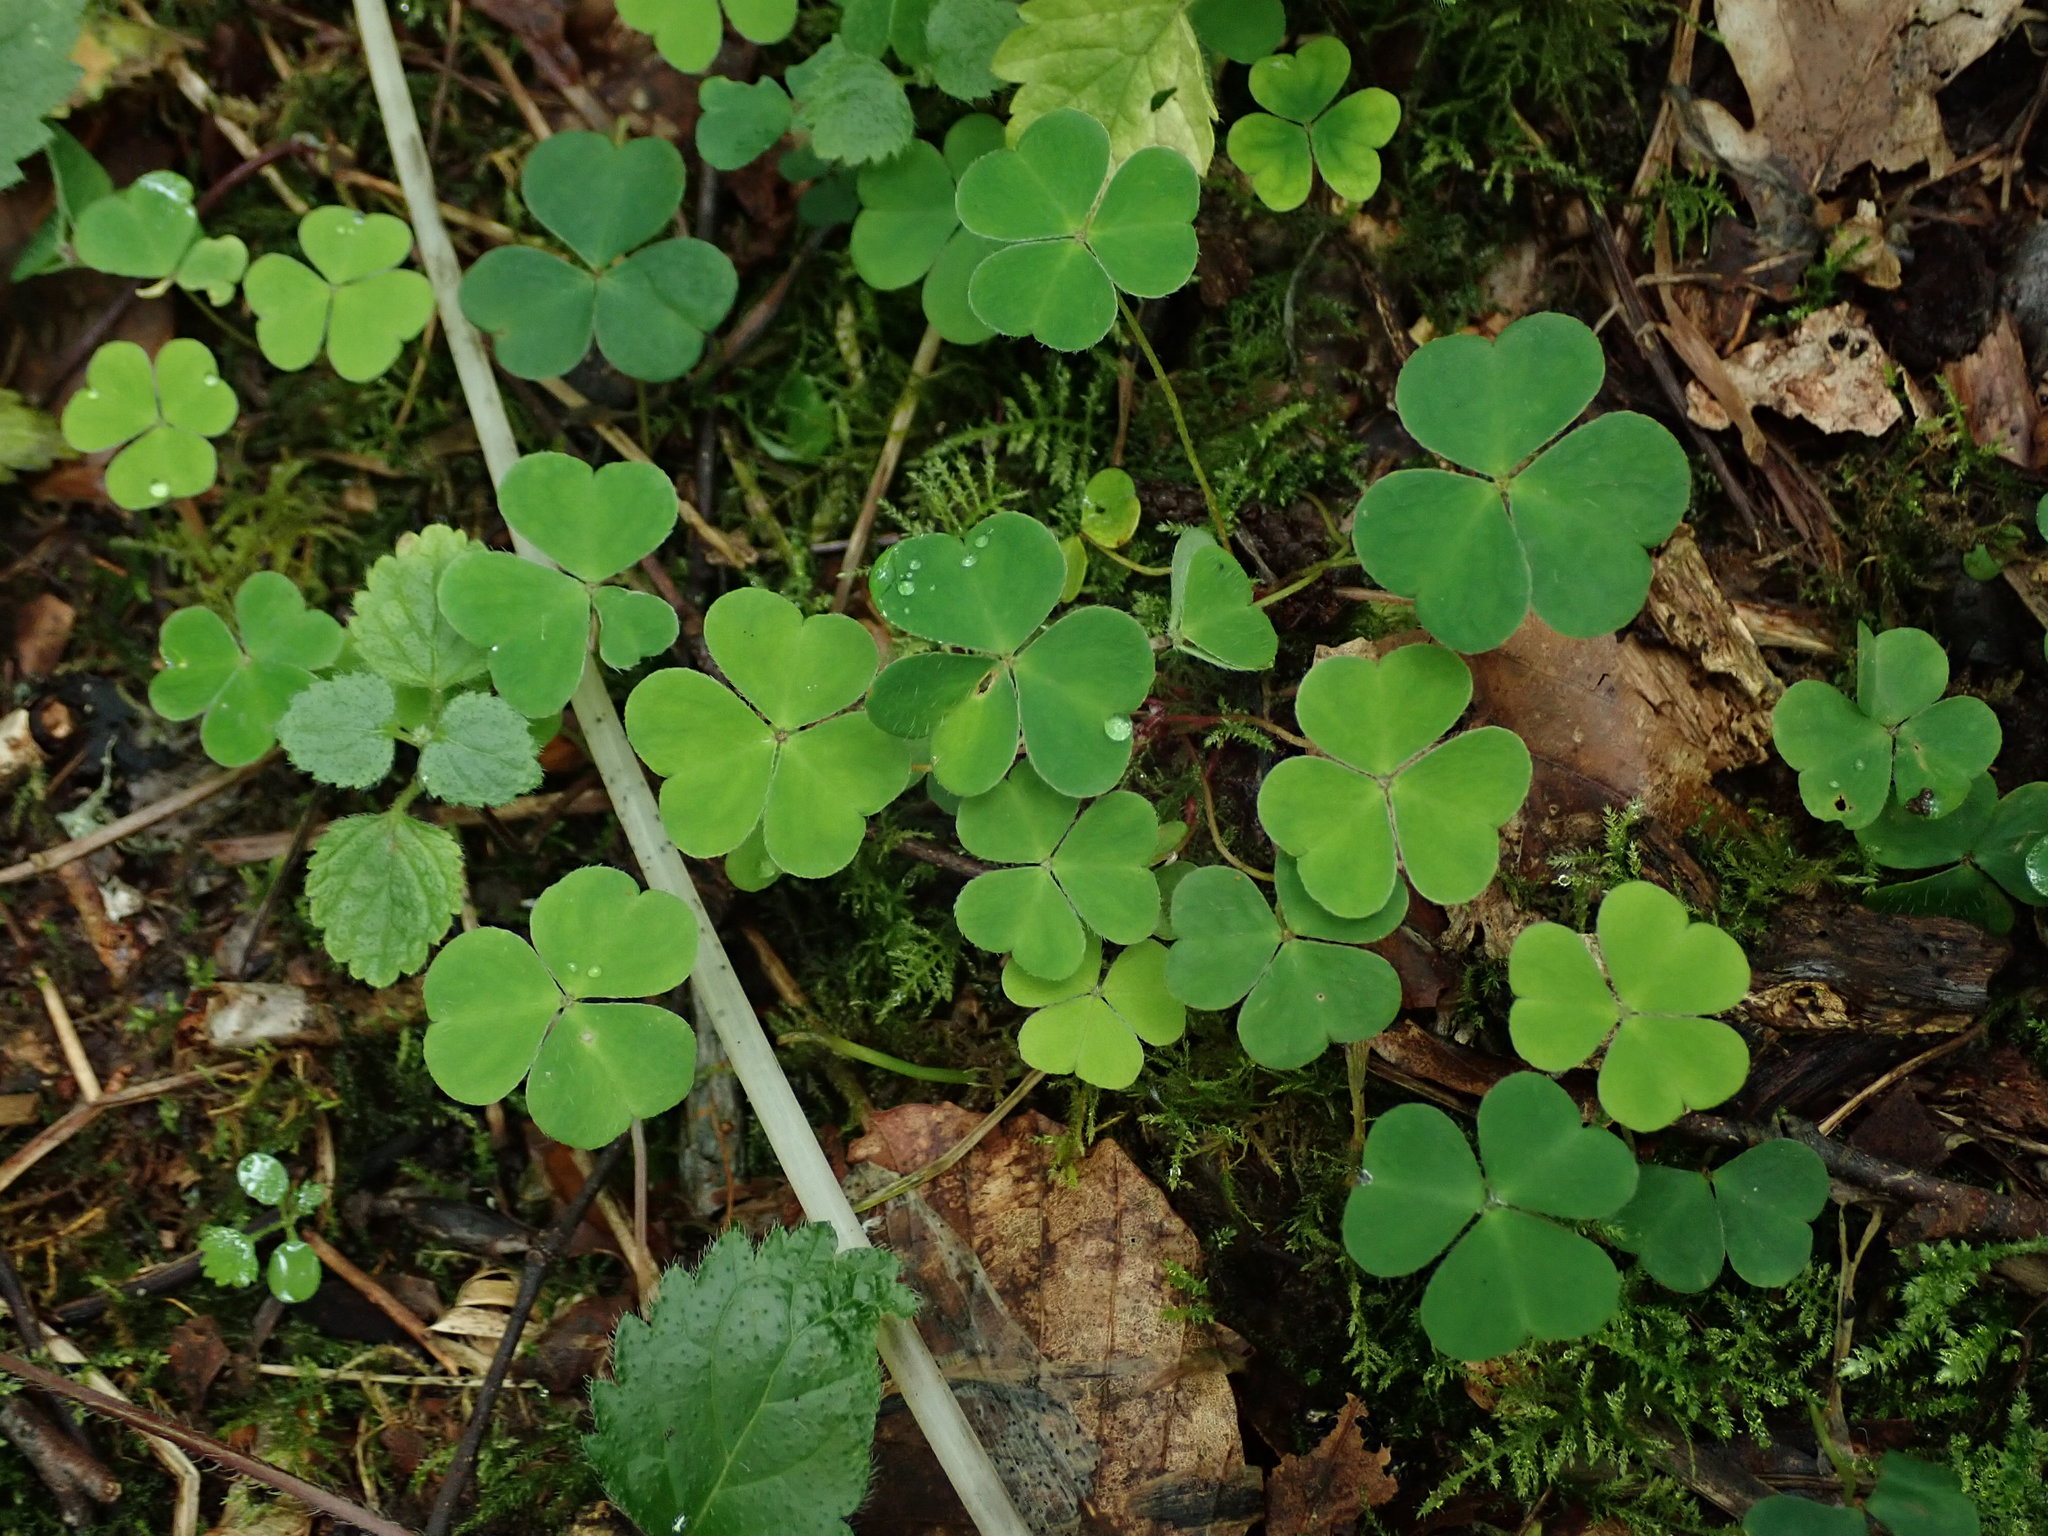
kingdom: Plantae
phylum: Tracheophyta
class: Magnoliopsida
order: Oxalidales
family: Oxalidaceae
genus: Oxalis
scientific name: Oxalis acetosella
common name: Wood-sorrel
